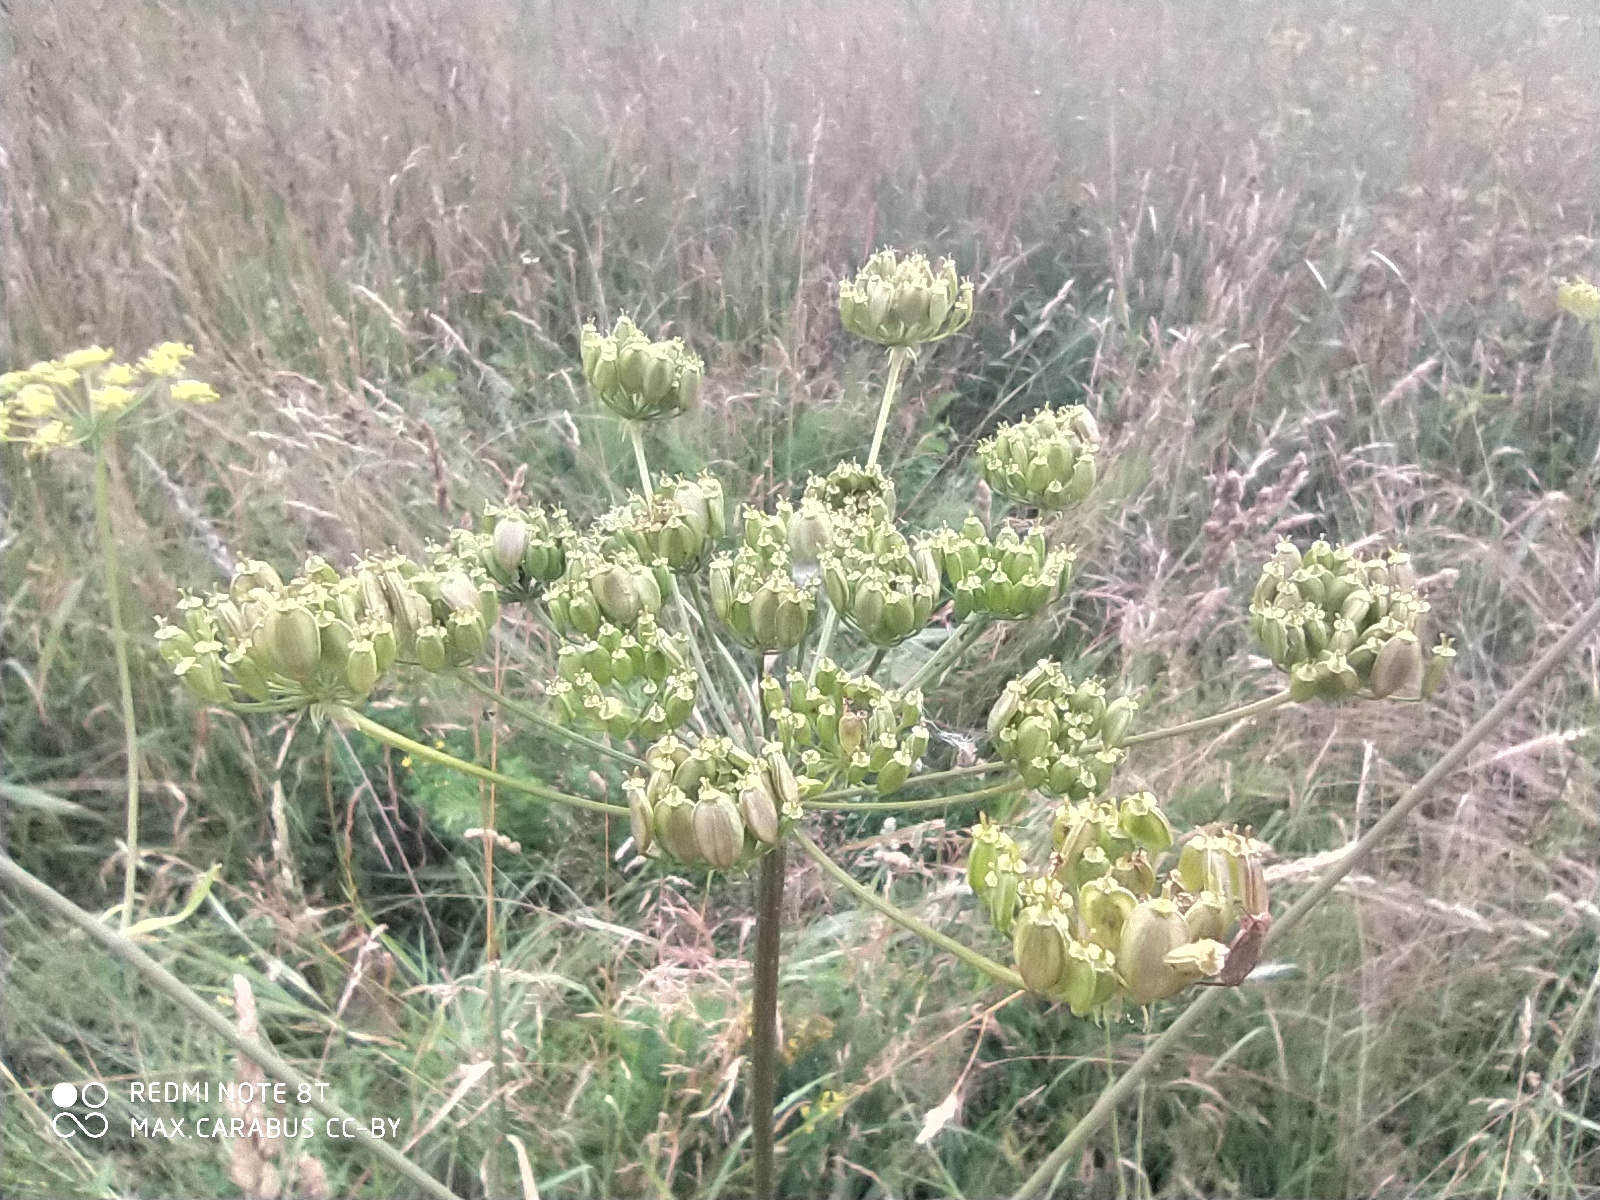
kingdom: Plantae
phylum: Tracheophyta
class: Magnoliopsida
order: Apiales
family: Apiaceae
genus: Heracleum
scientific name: Heracleum sphondylium
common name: Hogweed
